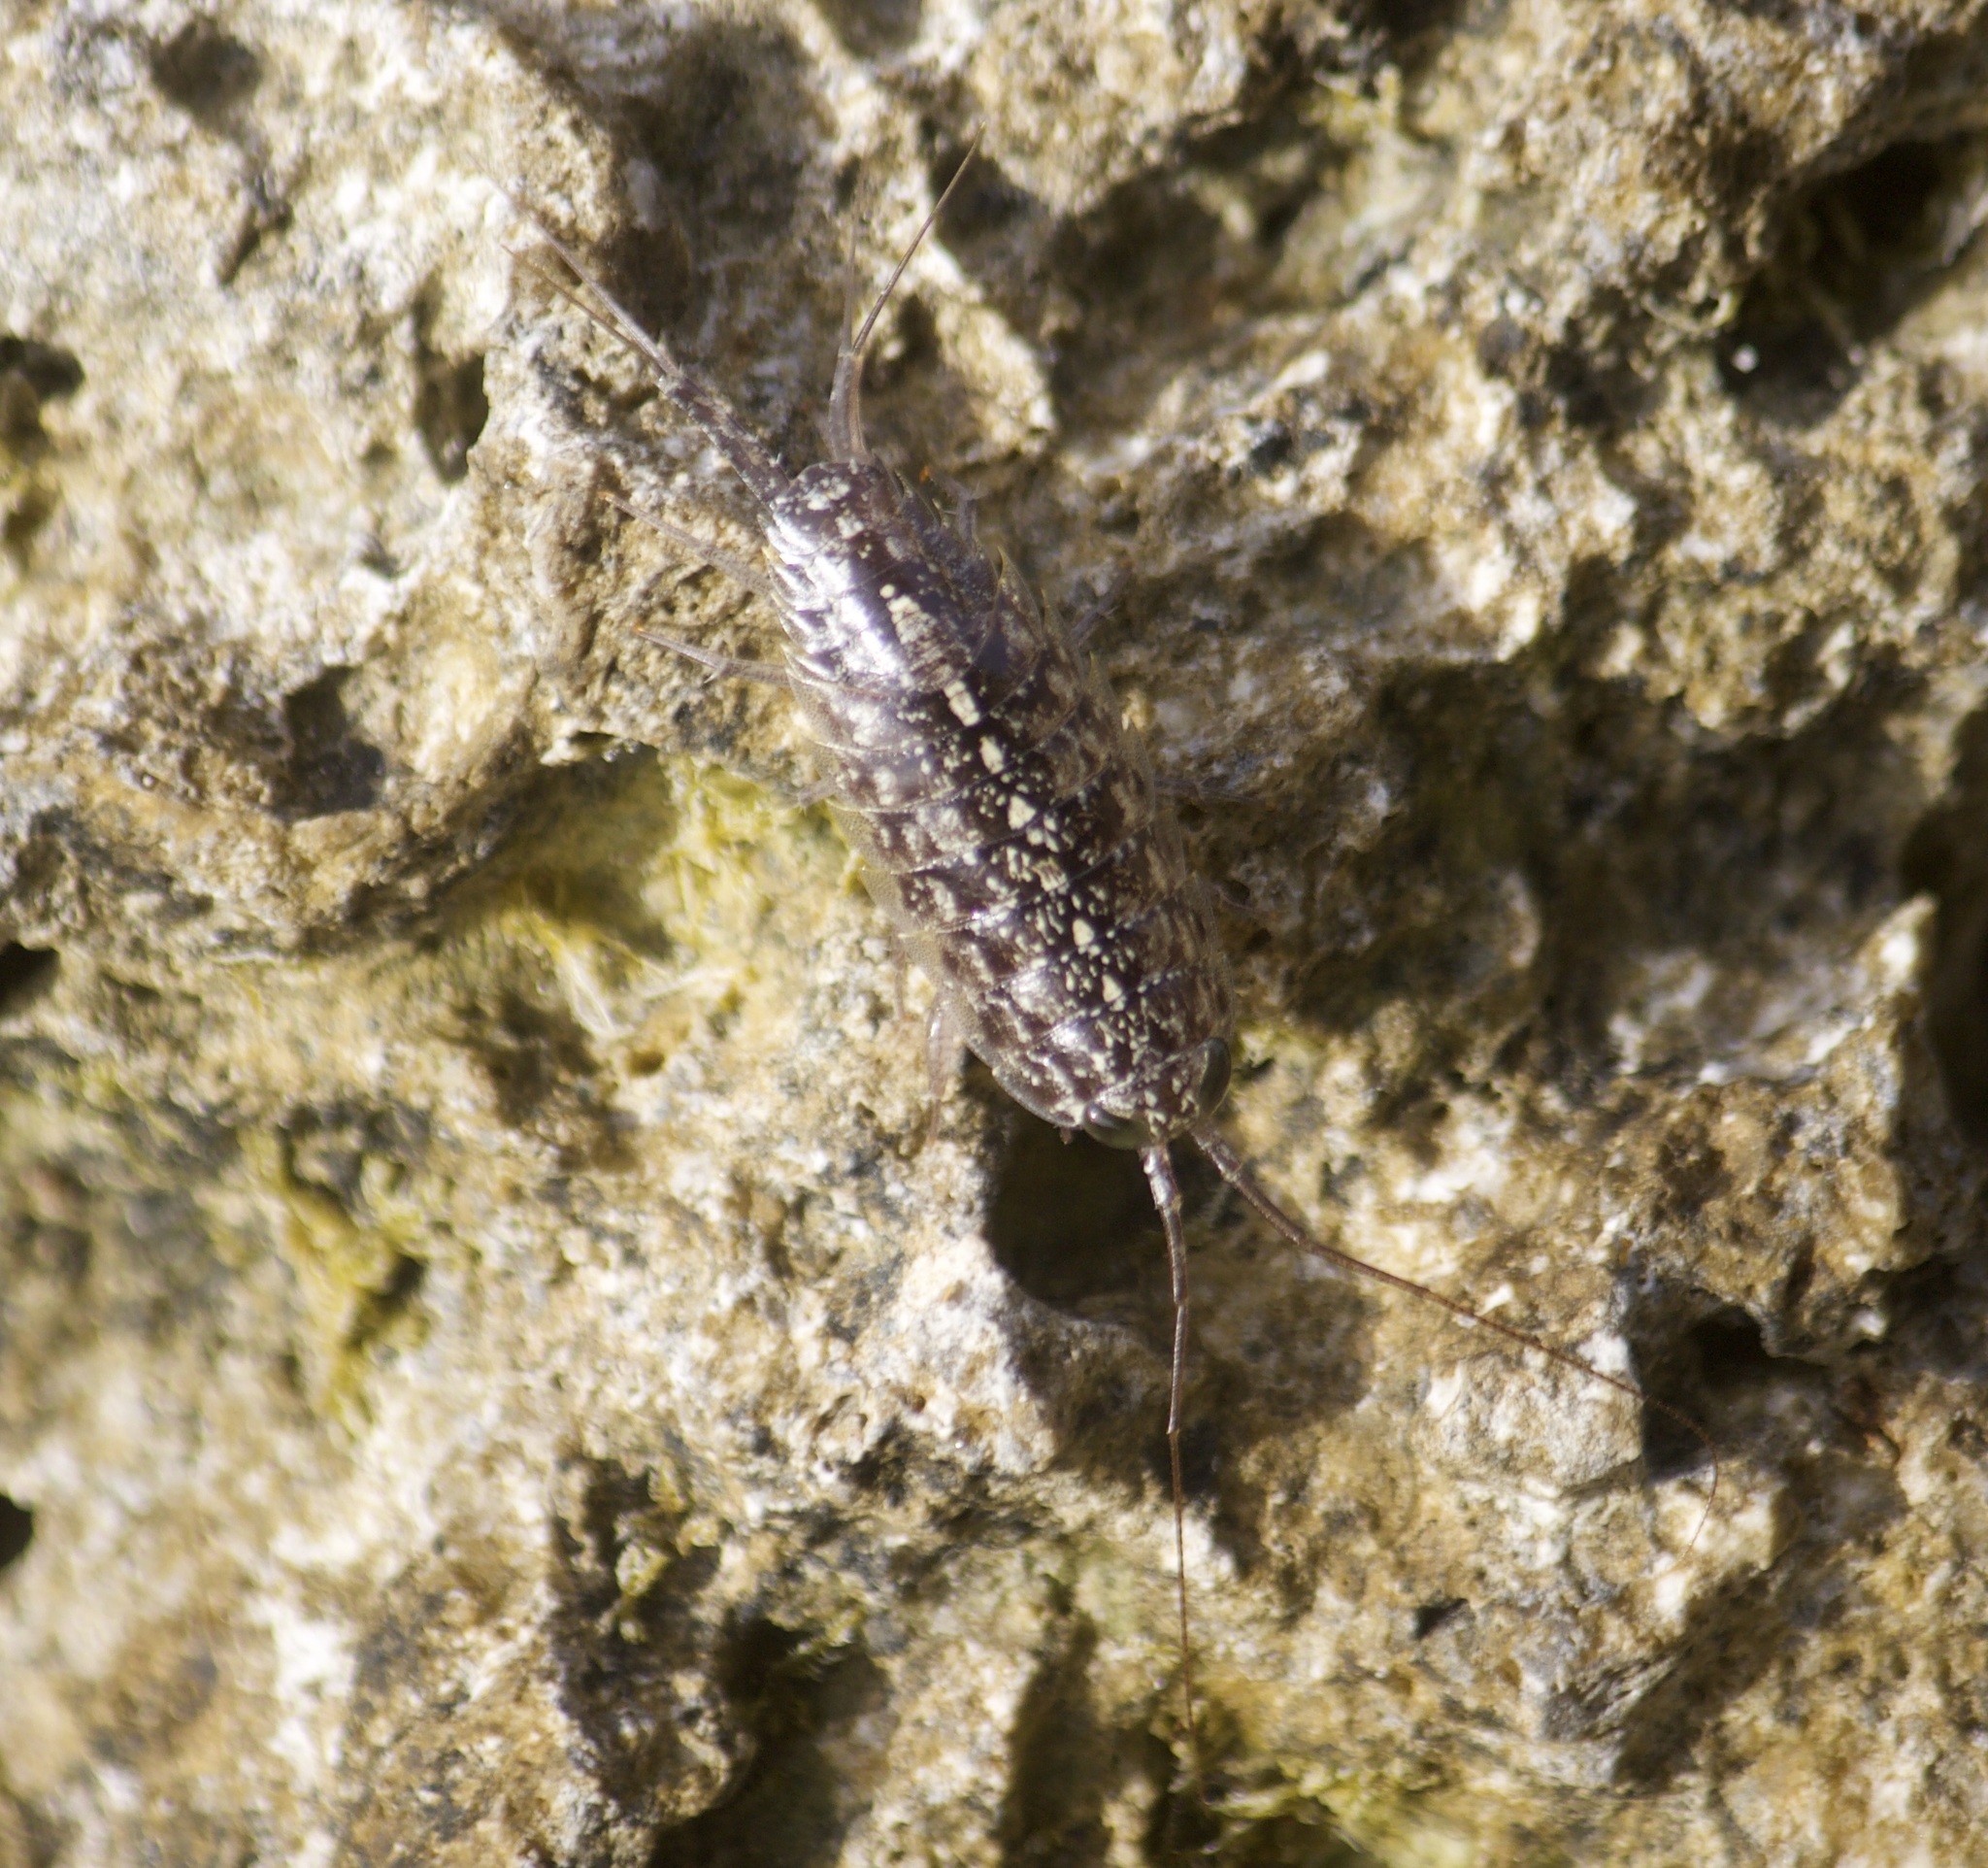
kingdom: Animalia
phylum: Arthropoda
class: Malacostraca
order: Isopoda
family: Ligiidae
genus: Ligia
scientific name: Ligia exotica
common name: Wharf roach
